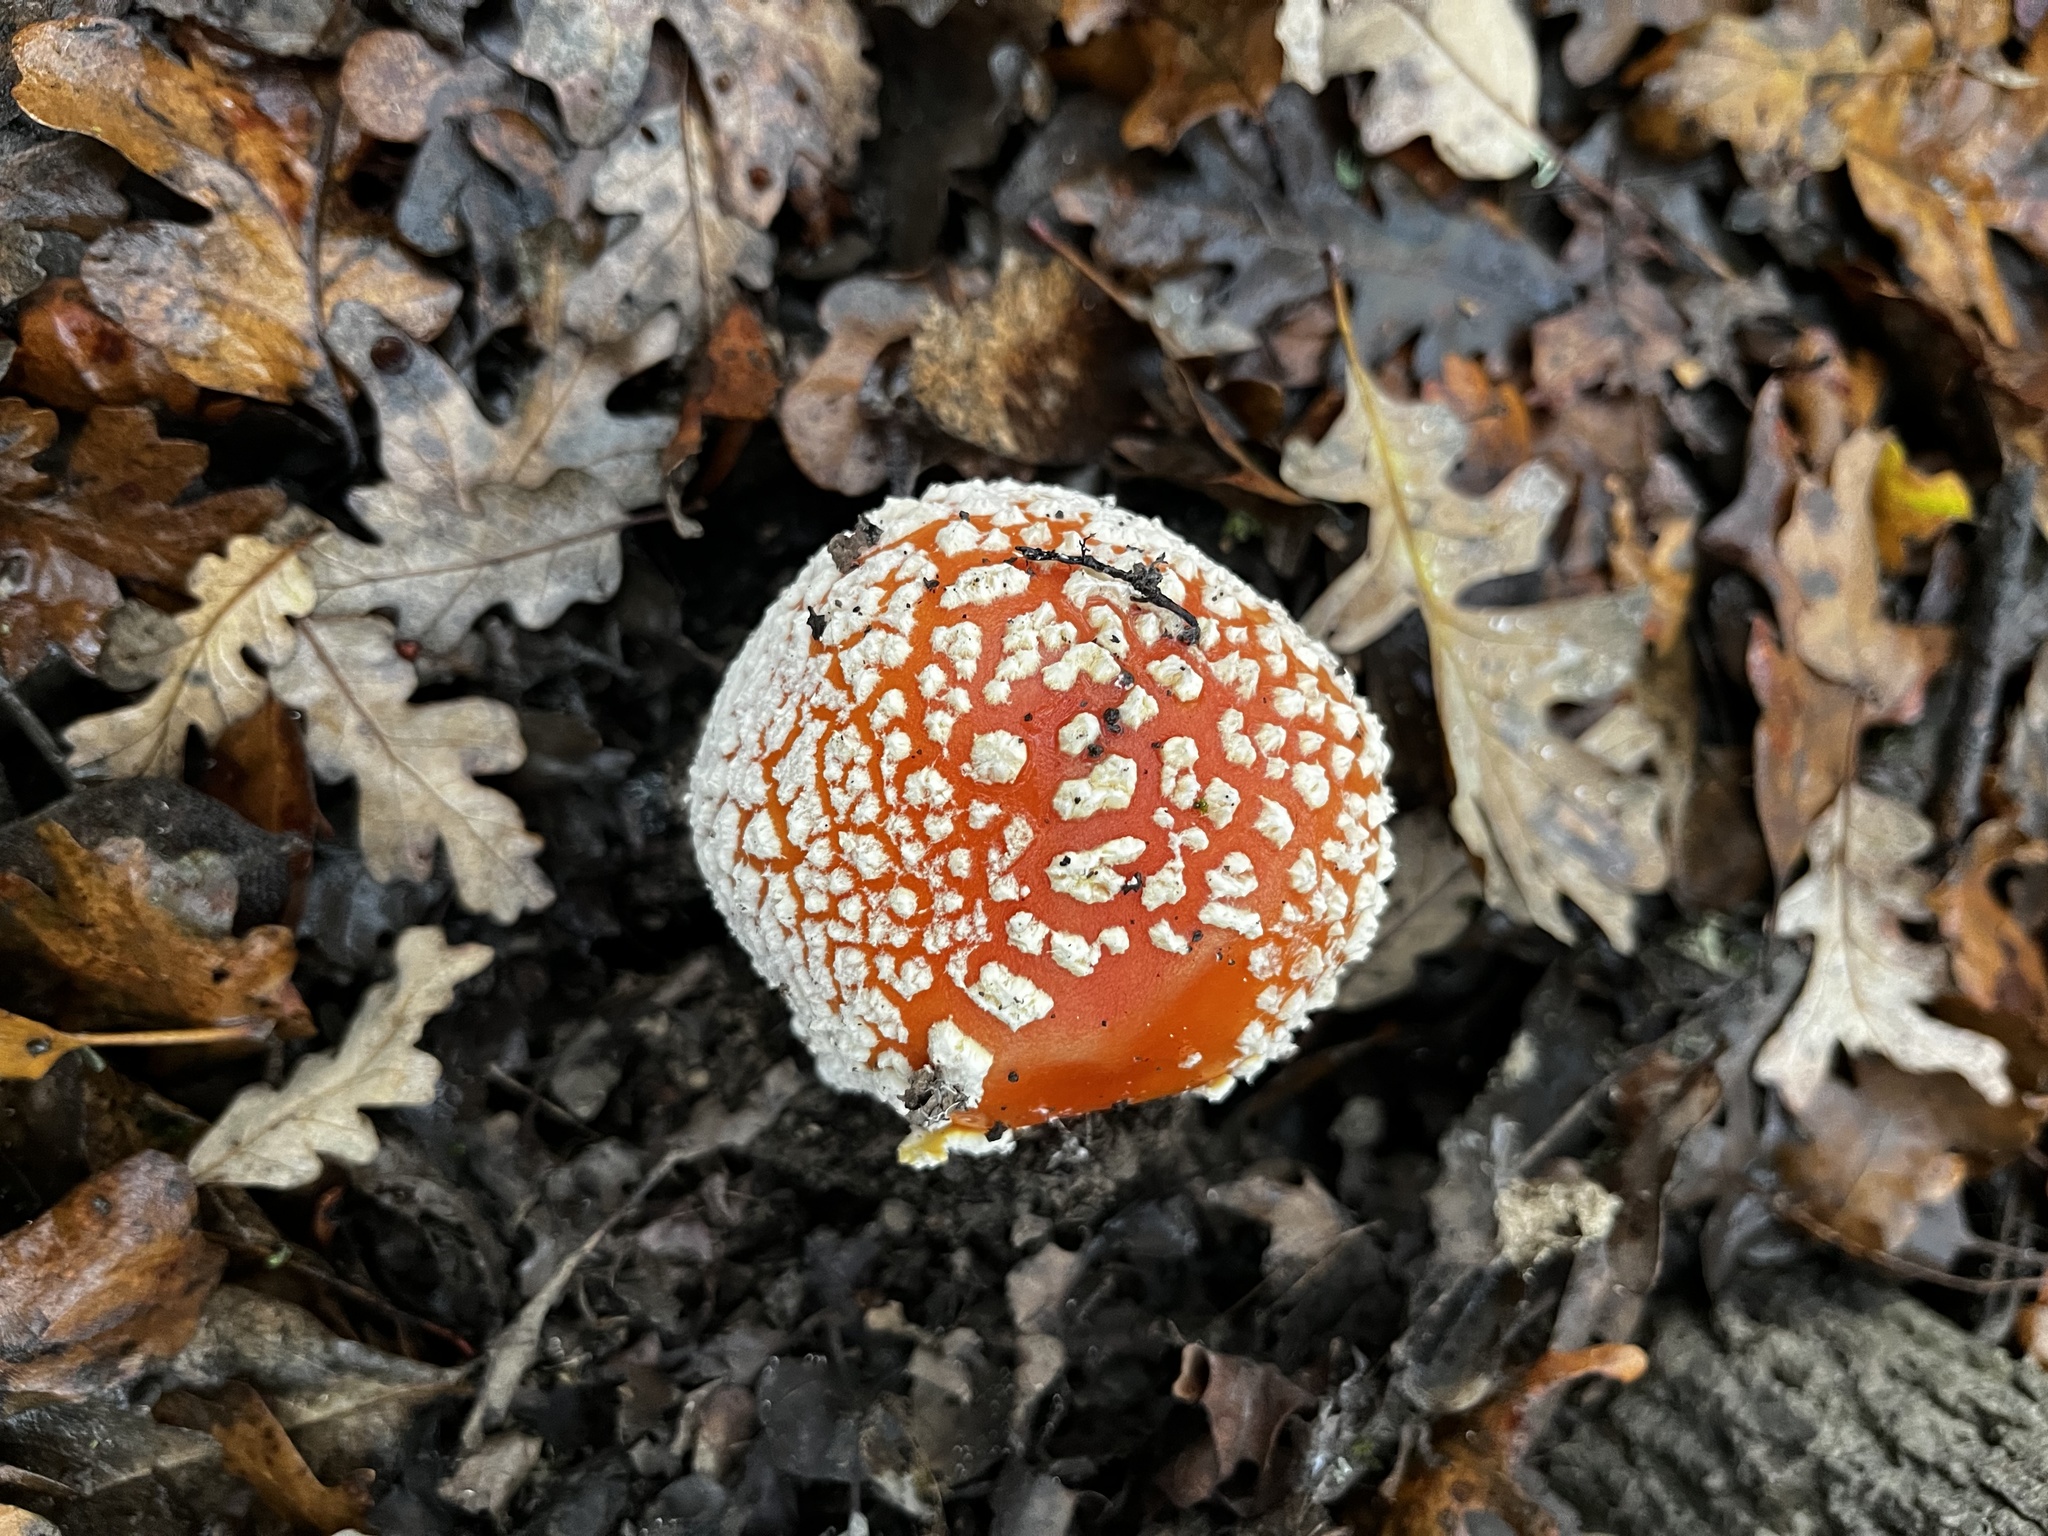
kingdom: Fungi
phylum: Basidiomycota
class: Agaricomycetes
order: Agaricales
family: Amanitaceae
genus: Amanita
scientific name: Amanita muscaria
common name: Fly agaric
